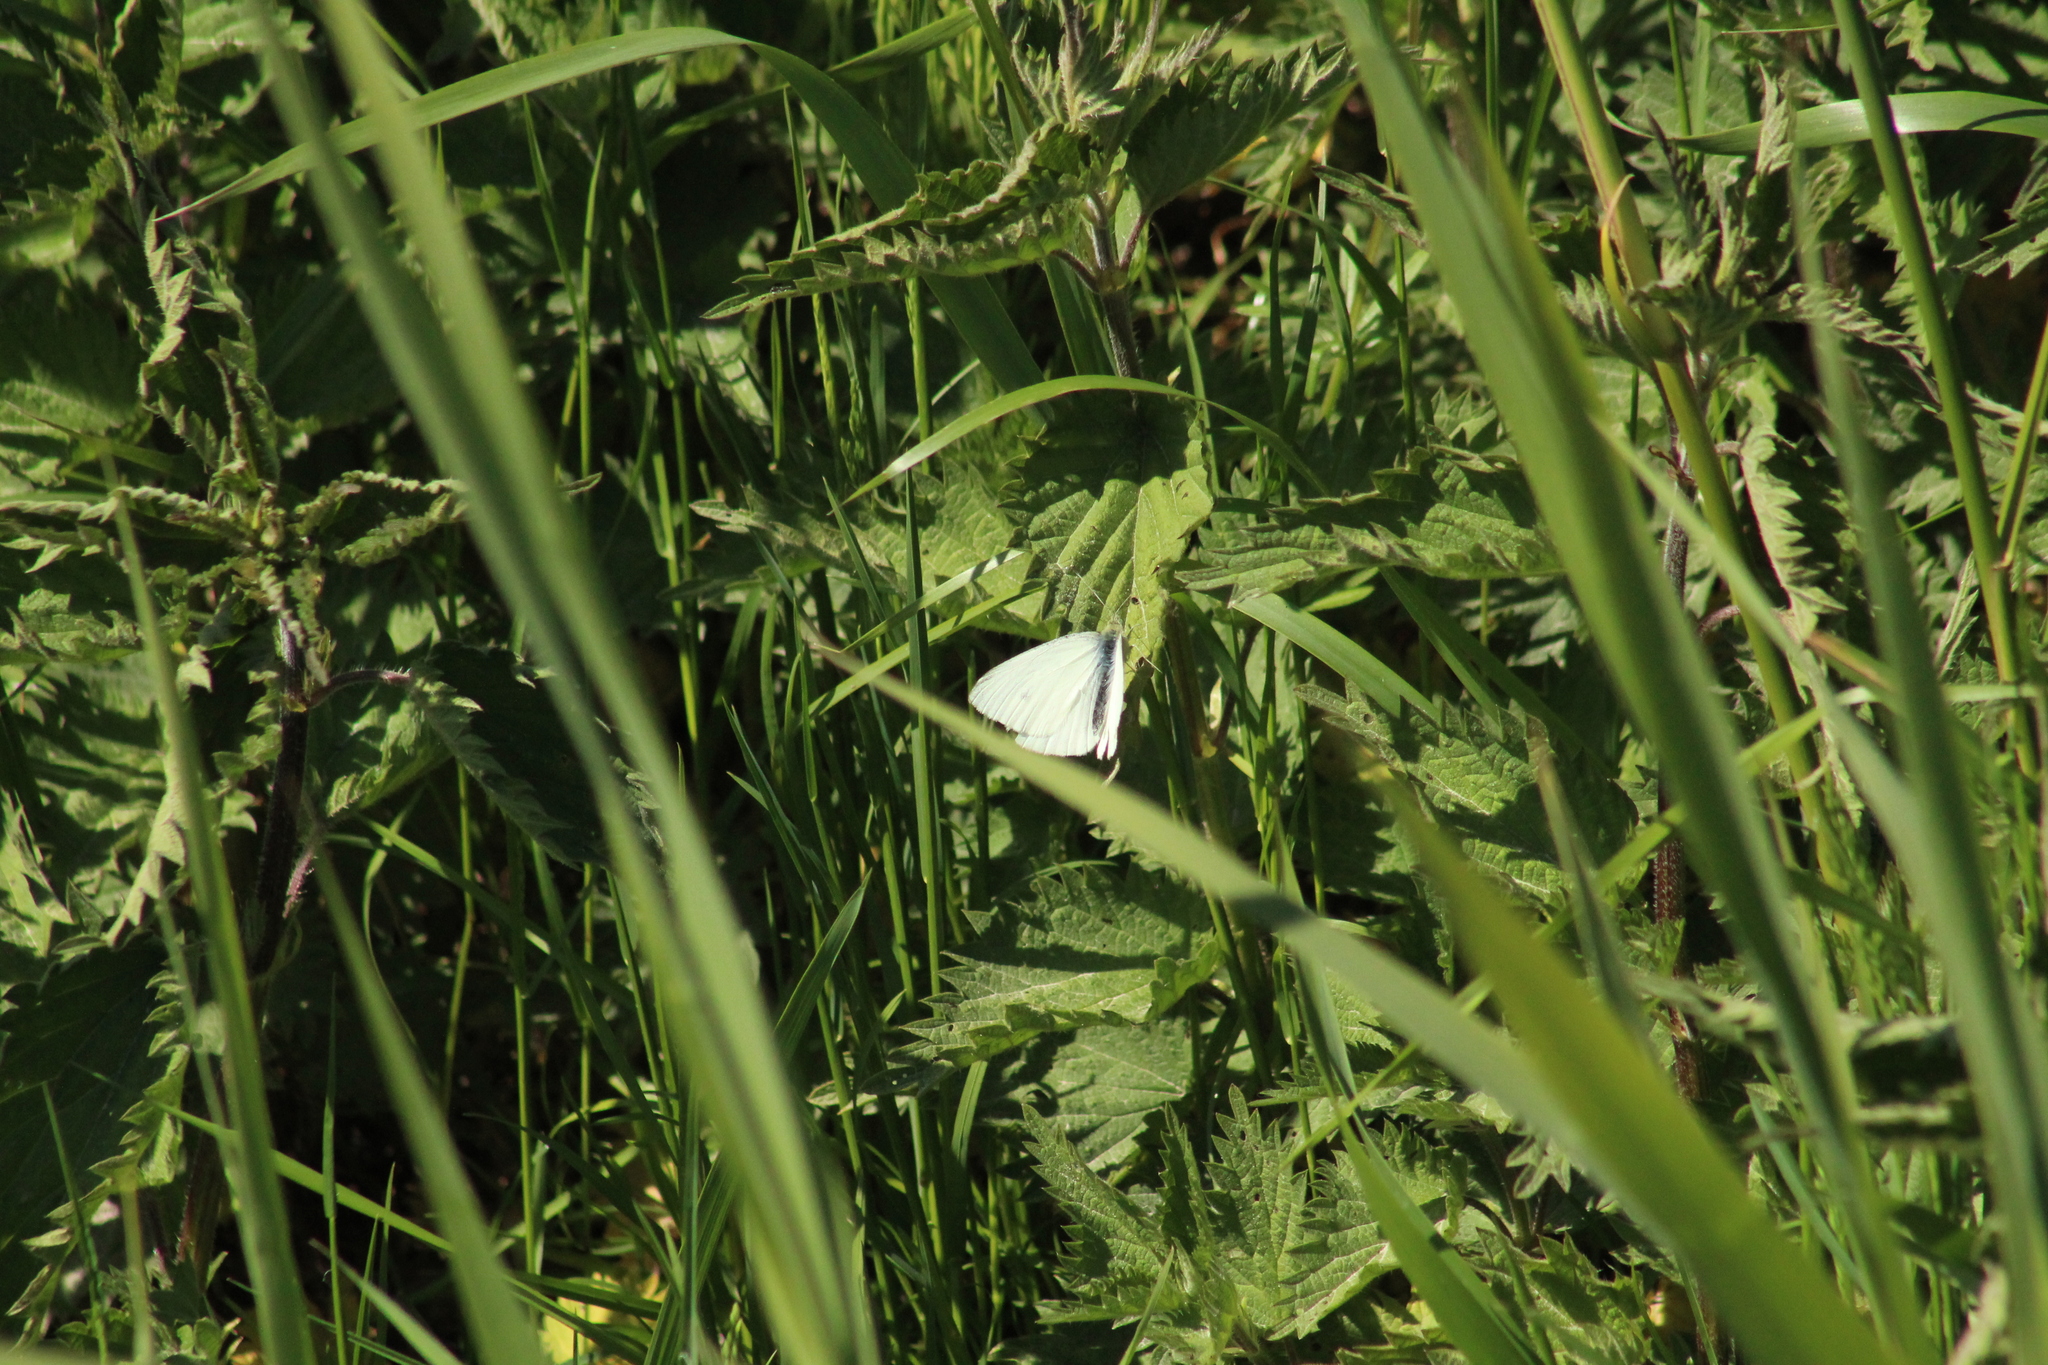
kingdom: Animalia
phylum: Arthropoda
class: Insecta
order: Lepidoptera
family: Pieridae
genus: Pieris
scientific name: Pieris rapae
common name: Small white
